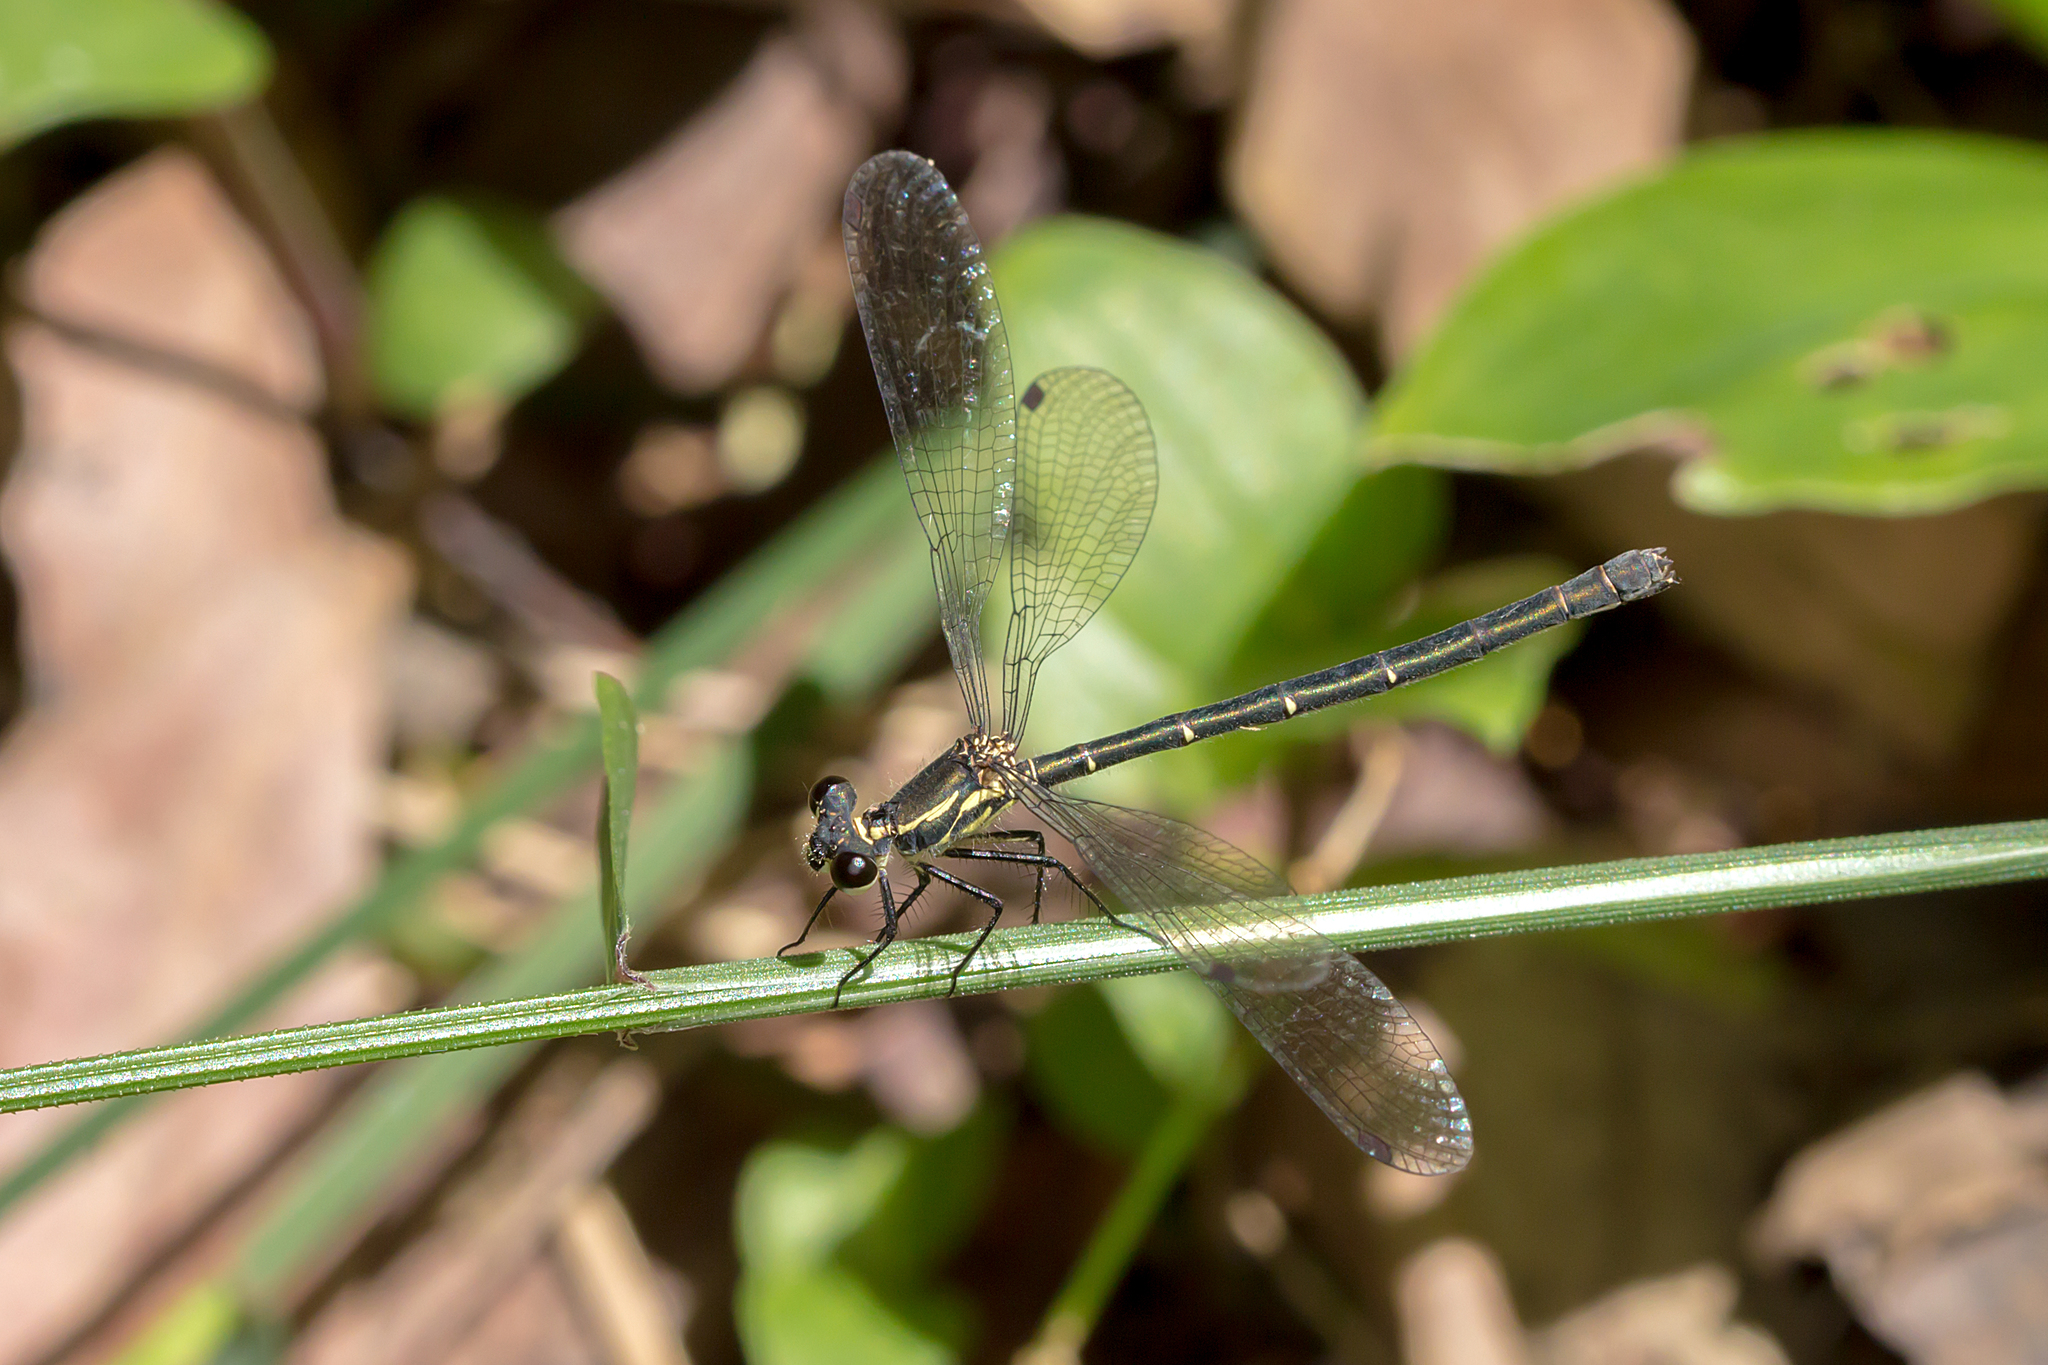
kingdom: Animalia
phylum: Arthropoda
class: Insecta
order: Odonata
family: Argiolestidae
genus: Griseargiolestes
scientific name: Griseargiolestes intermedius
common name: Alpine flatwing
